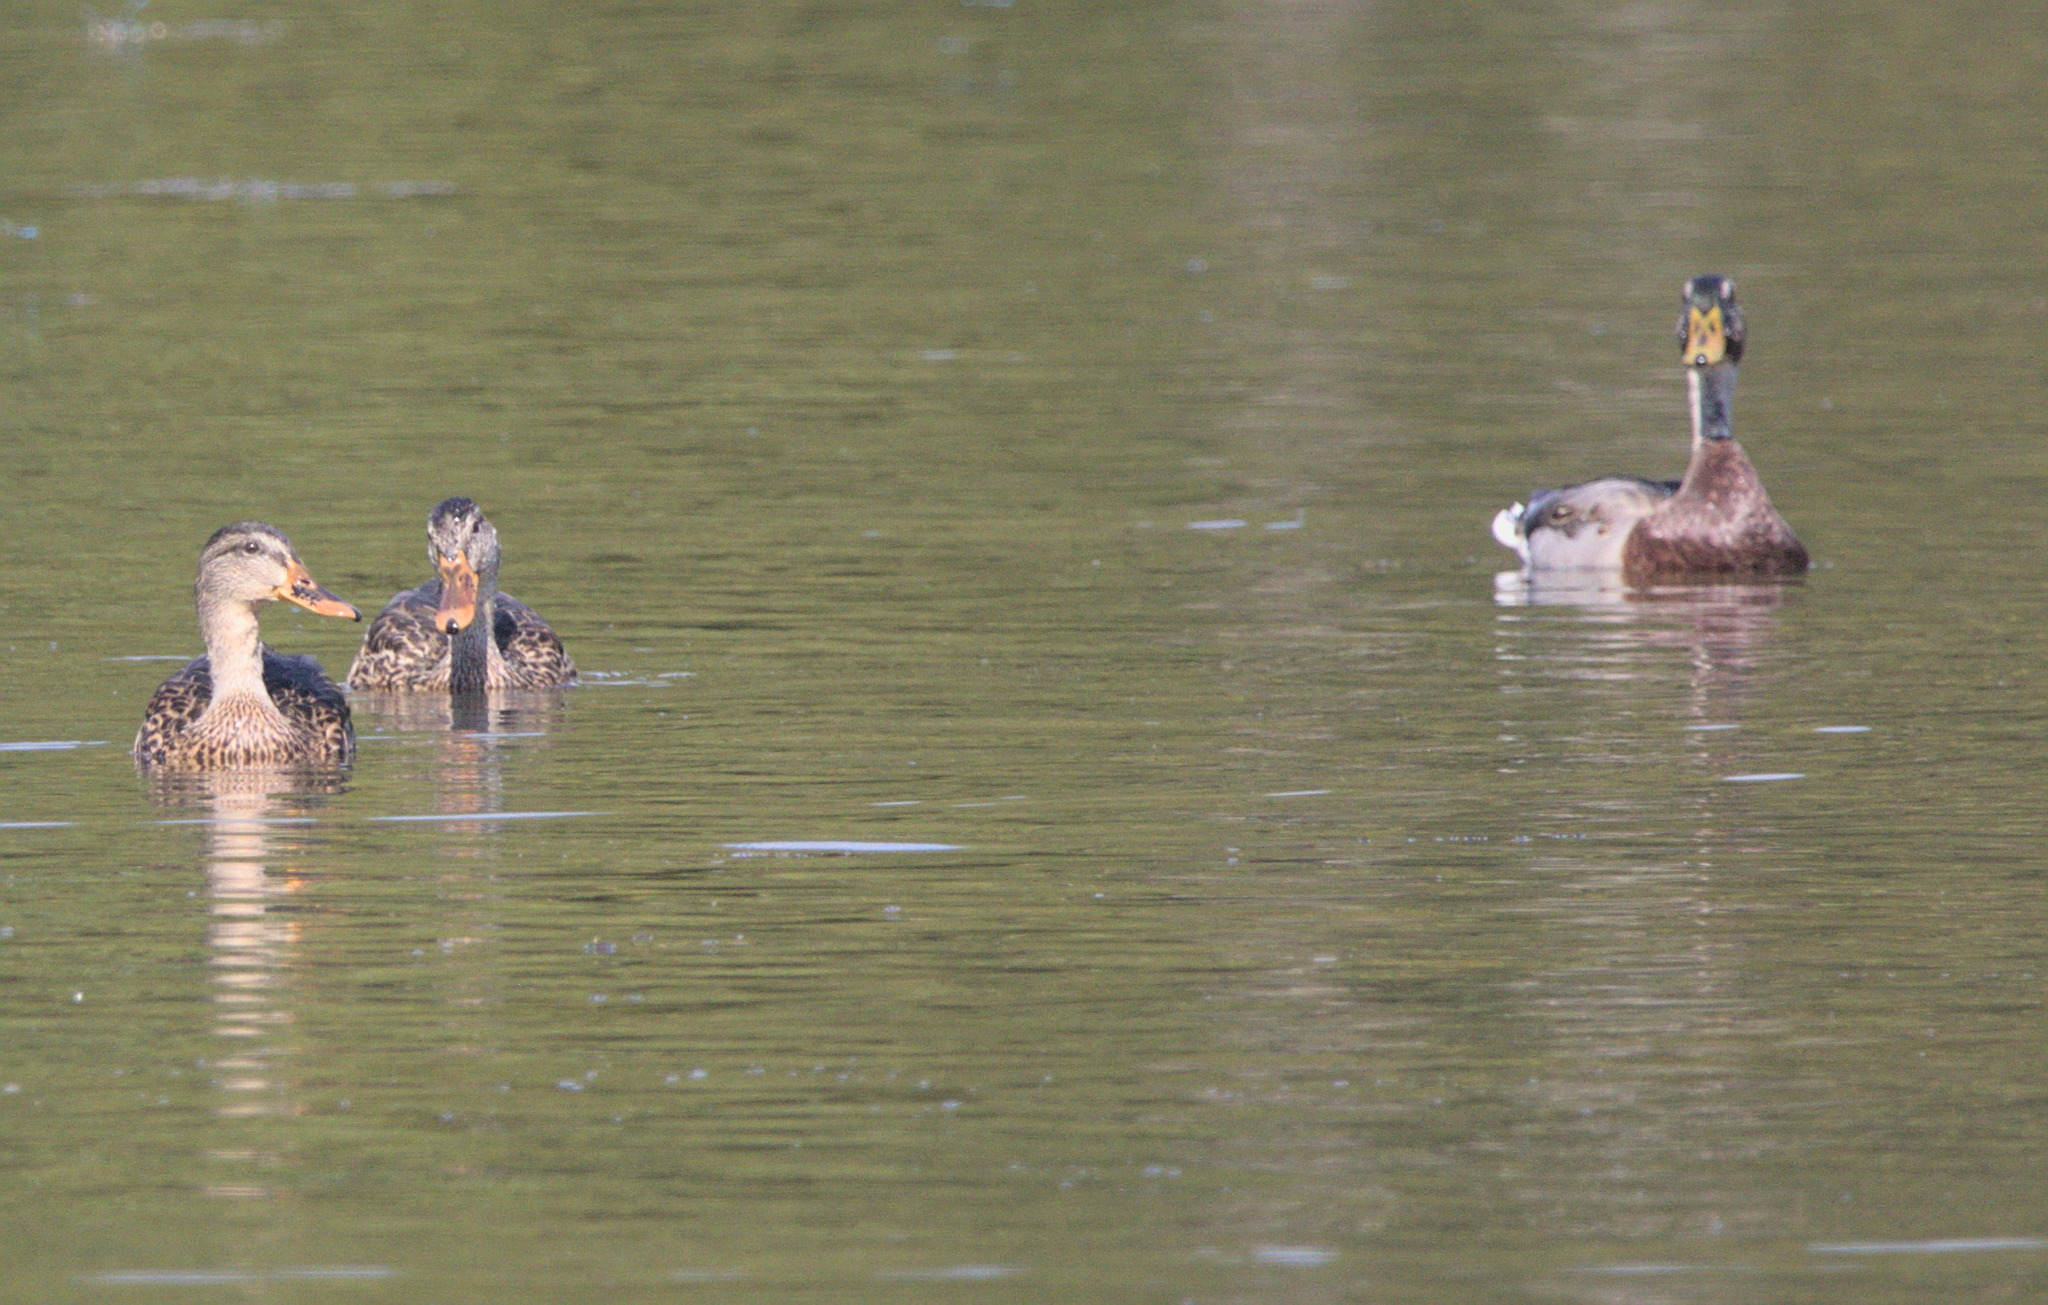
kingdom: Animalia
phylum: Chordata
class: Aves
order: Anseriformes
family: Anatidae
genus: Anas
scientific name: Anas platyrhynchos
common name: Mallard
